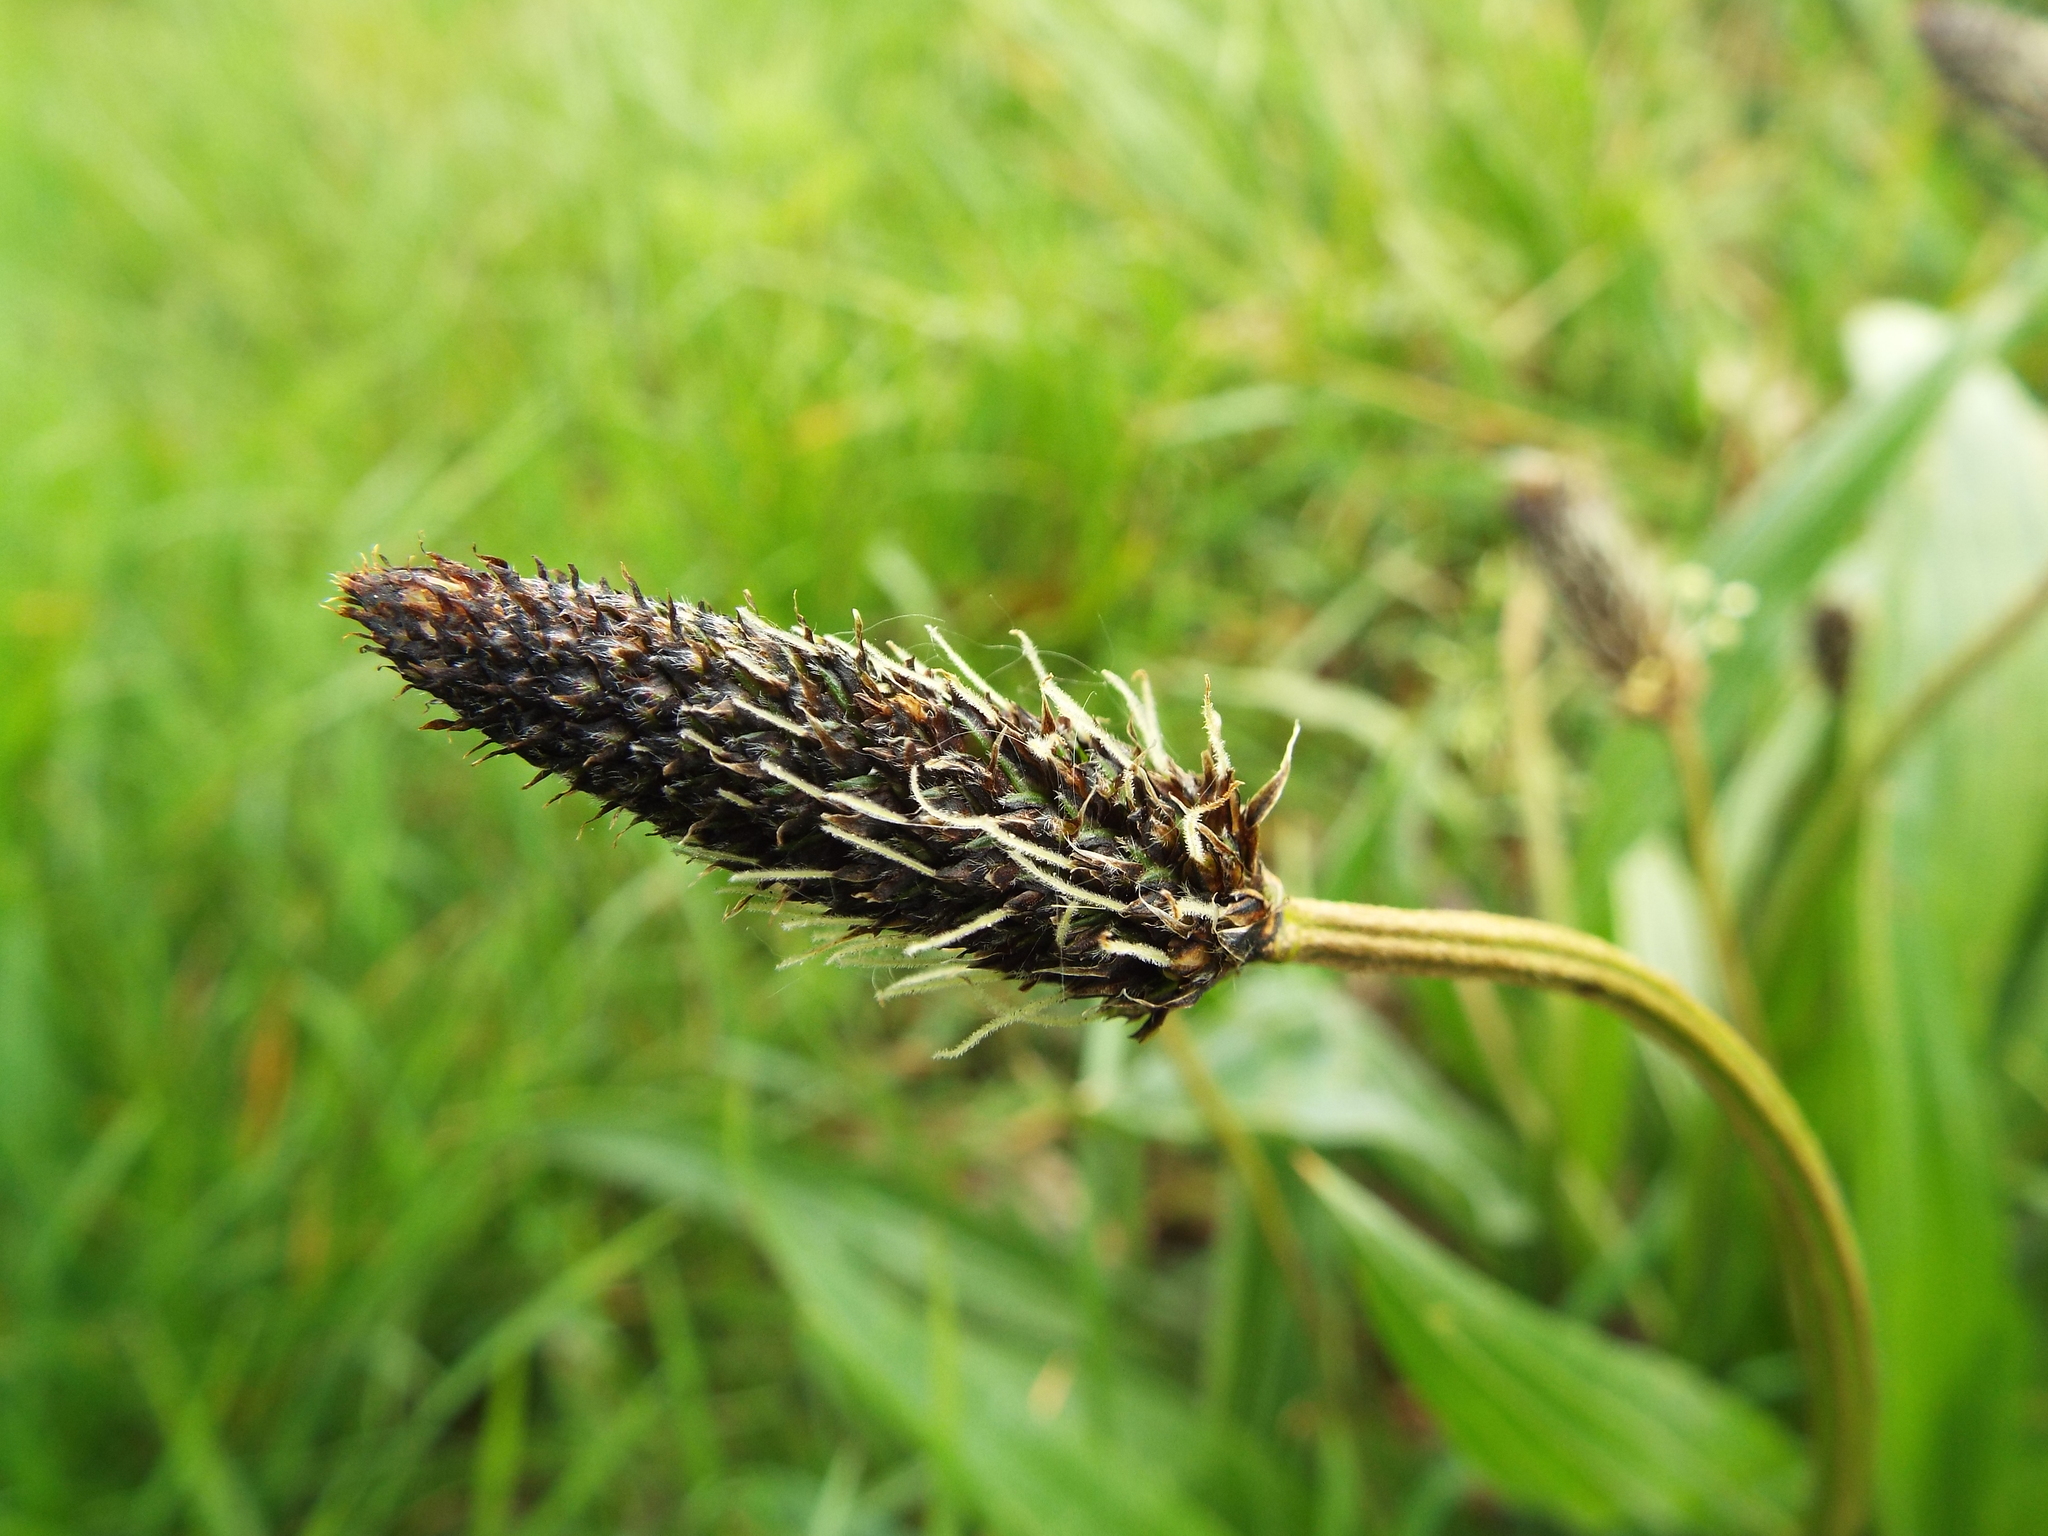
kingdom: Plantae
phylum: Tracheophyta
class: Magnoliopsida
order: Lamiales
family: Plantaginaceae
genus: Plantago
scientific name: Plantago lanceolata
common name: Ribwort plantain
